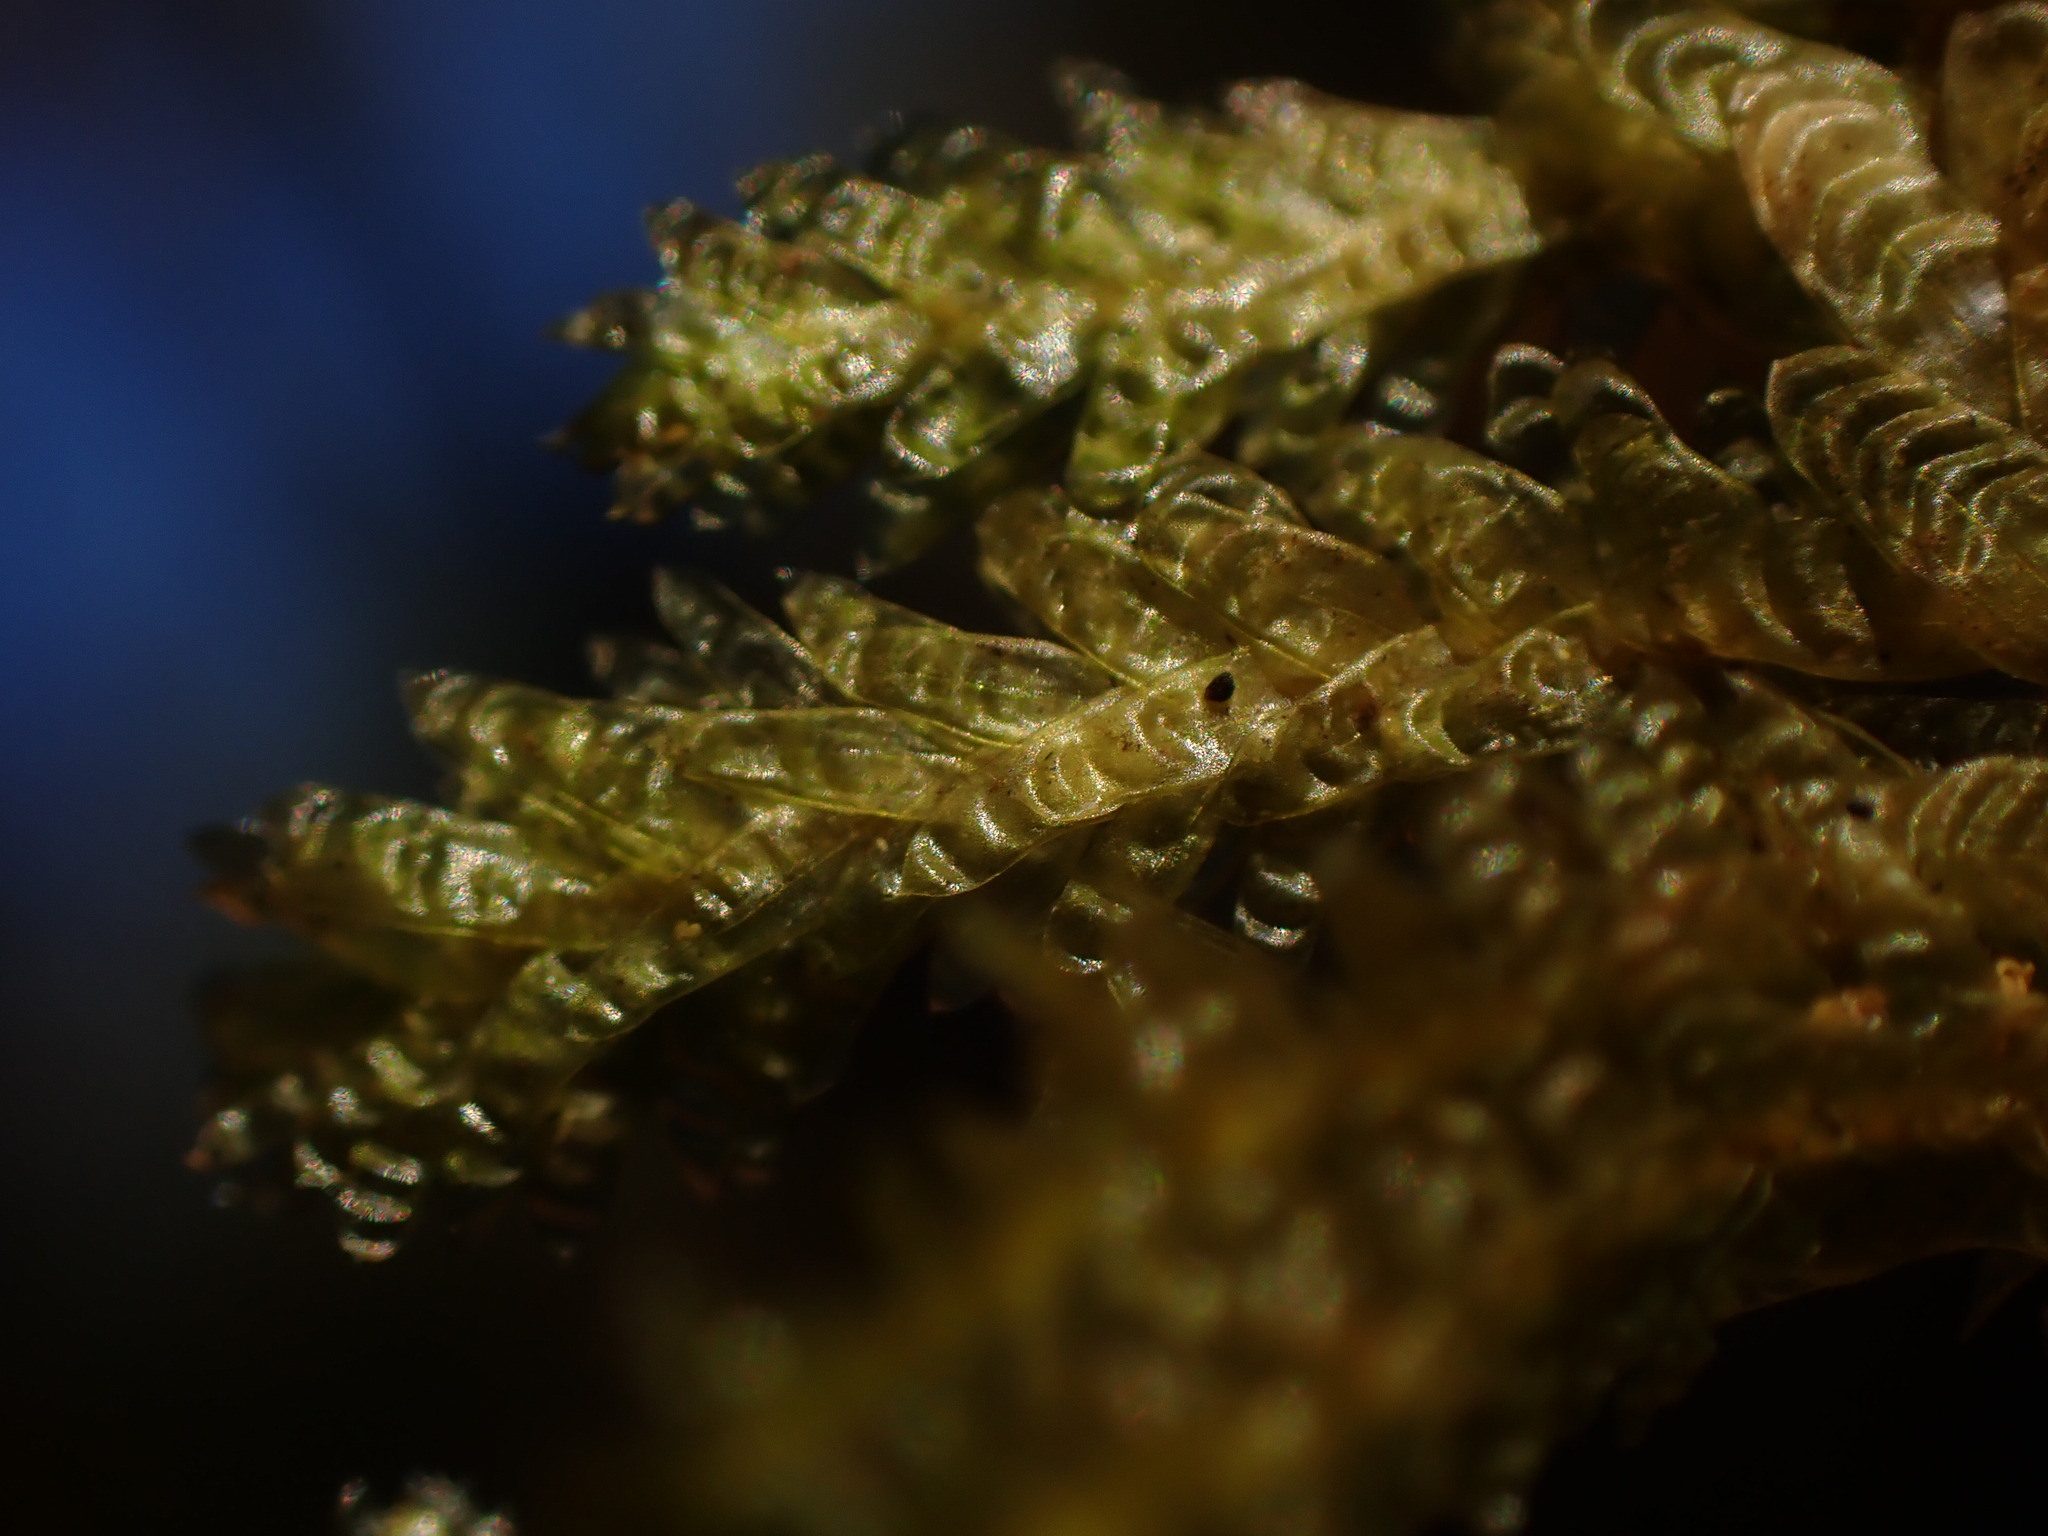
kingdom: Plantae
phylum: Bryophyta
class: Bryopsida
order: Hypnales
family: Neckeraceae
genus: Metaneckera
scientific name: Metaneckera menziesii
